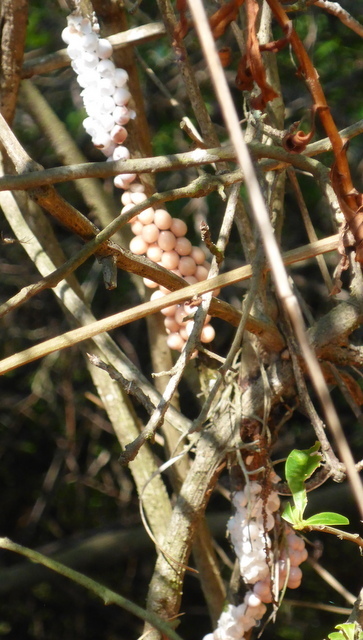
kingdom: Animalia
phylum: Mollusca
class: Gastropoda
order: Architaenioglossa
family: Ampullariidae
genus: Pomacea
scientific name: Pomacea paludosa
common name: Florida applesnail
